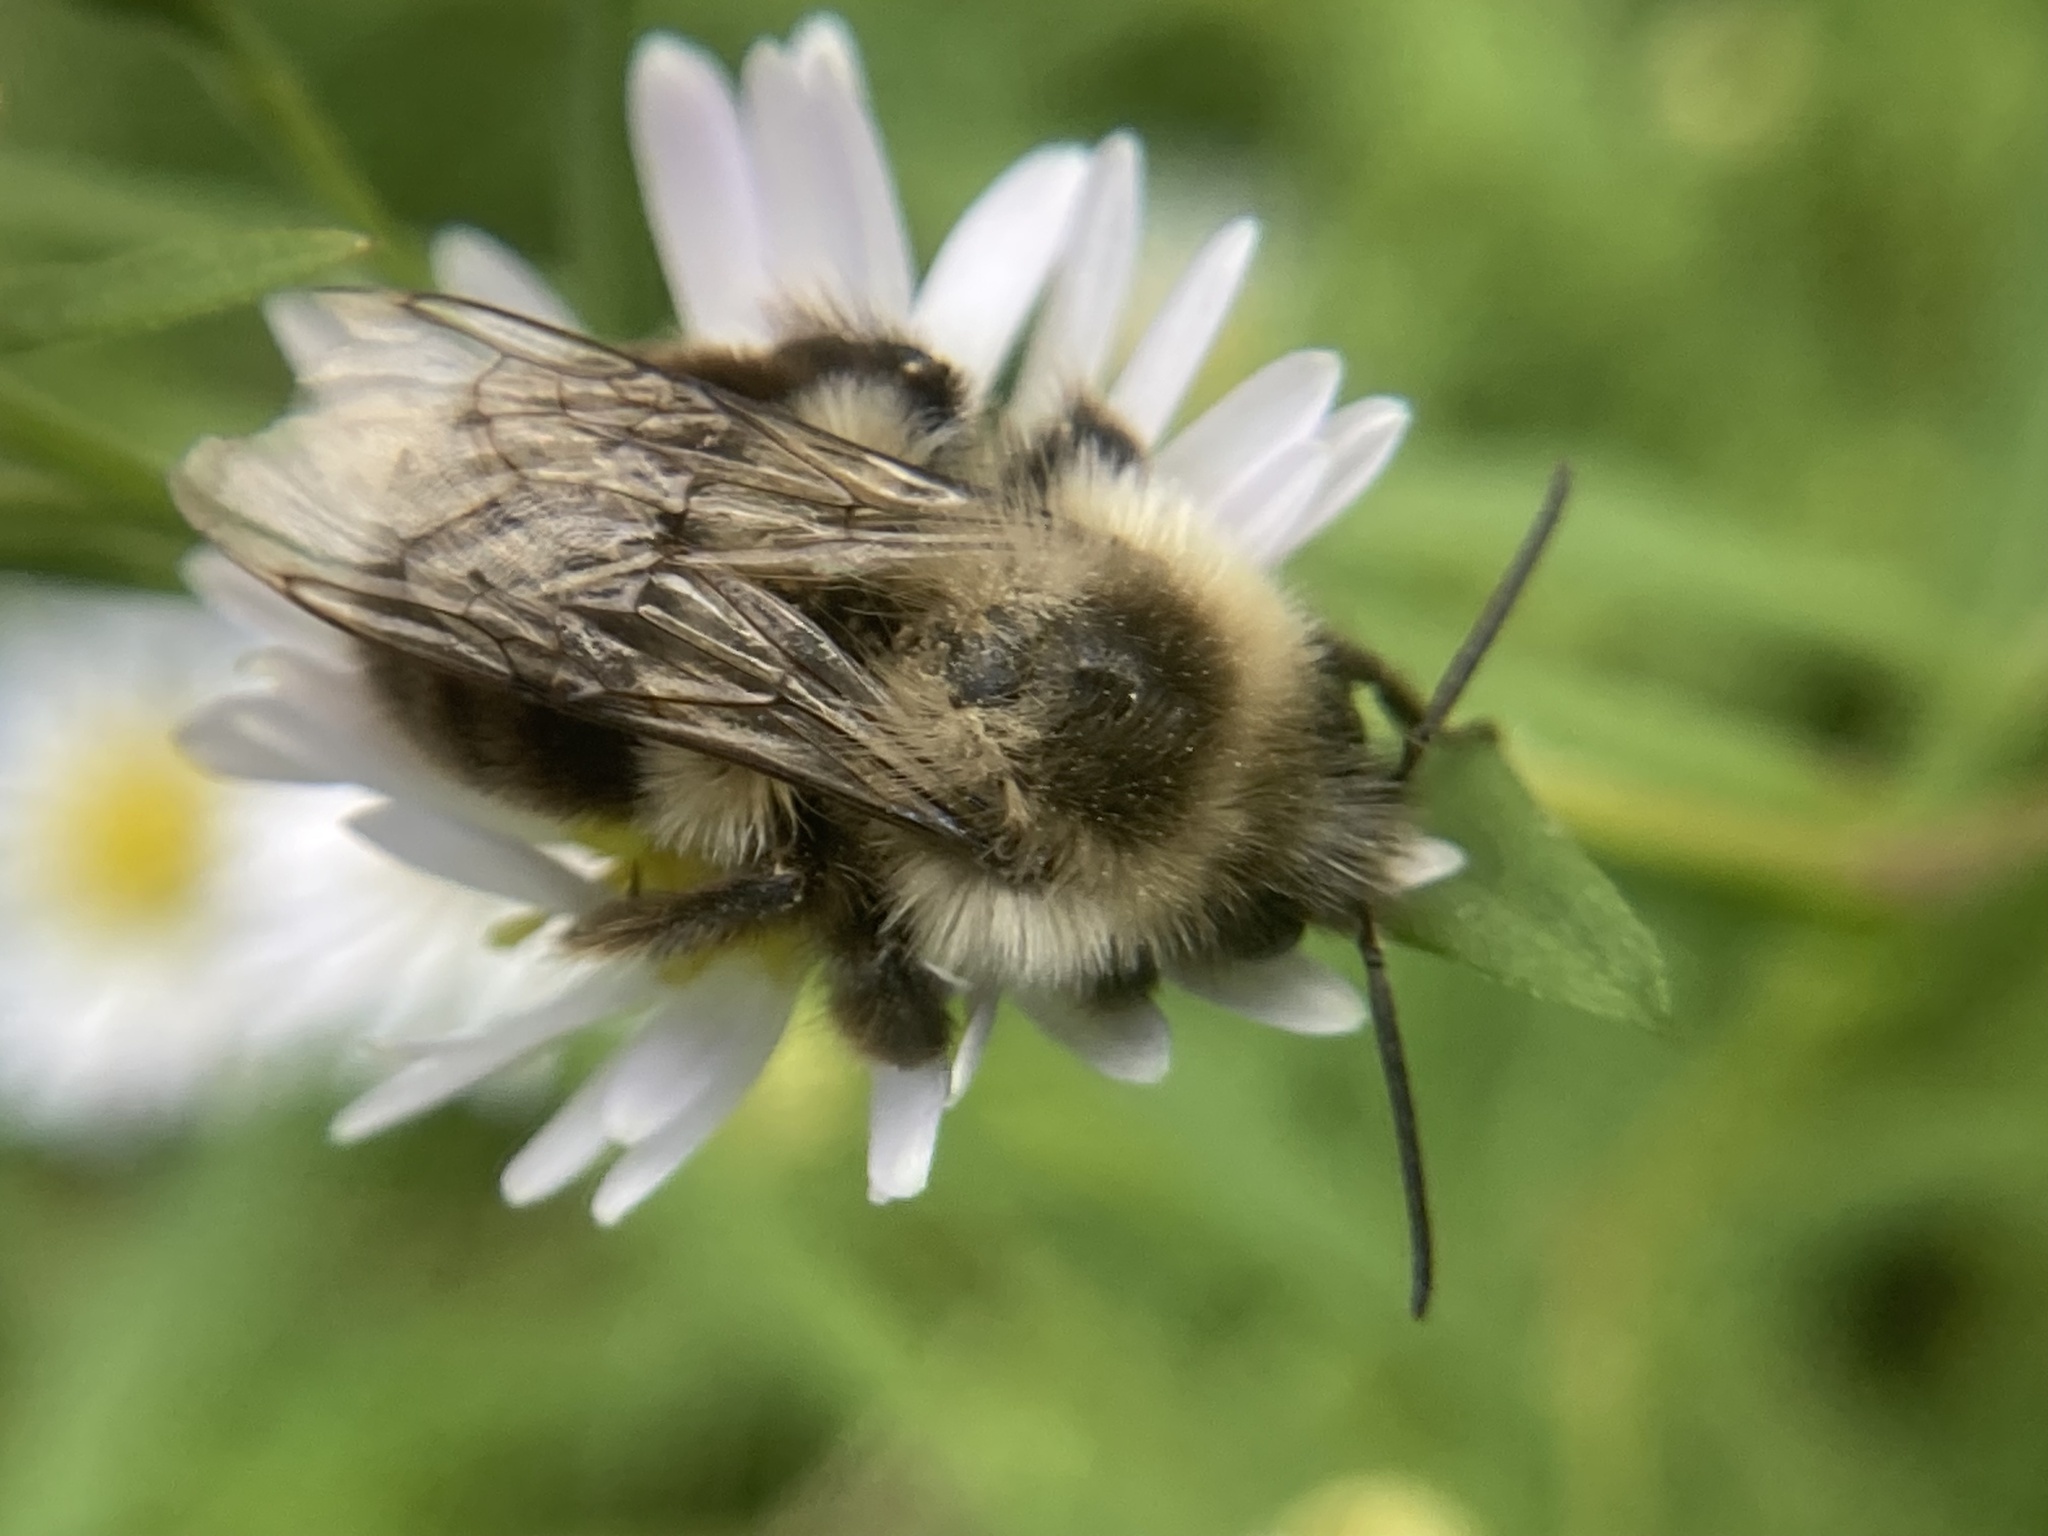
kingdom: Animalia
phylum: Arthropoda
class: Insecta
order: Hymenoptera
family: Apidae
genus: Bombus
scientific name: Bombus impatiens
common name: Common eastern bumble bee
